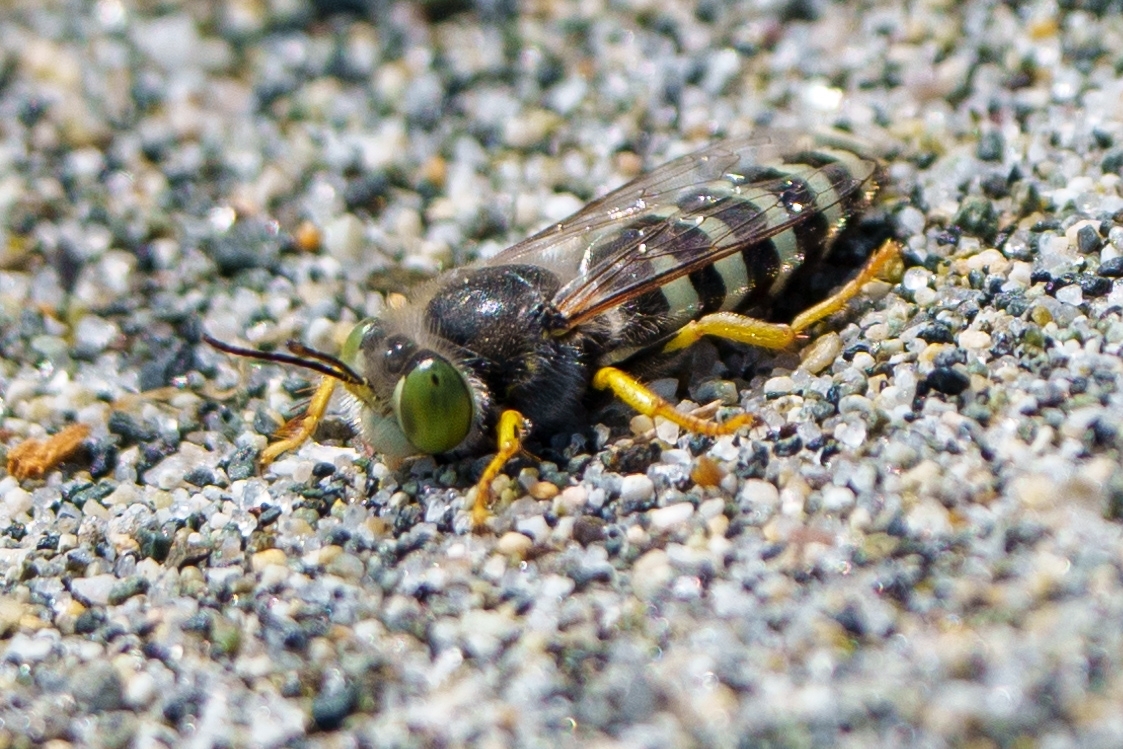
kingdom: Animalia
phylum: Arthropoda
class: Insecta
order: Hymenoptera
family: Crabronidae
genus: Bembix
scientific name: Bembix americana
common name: American sand wasp
